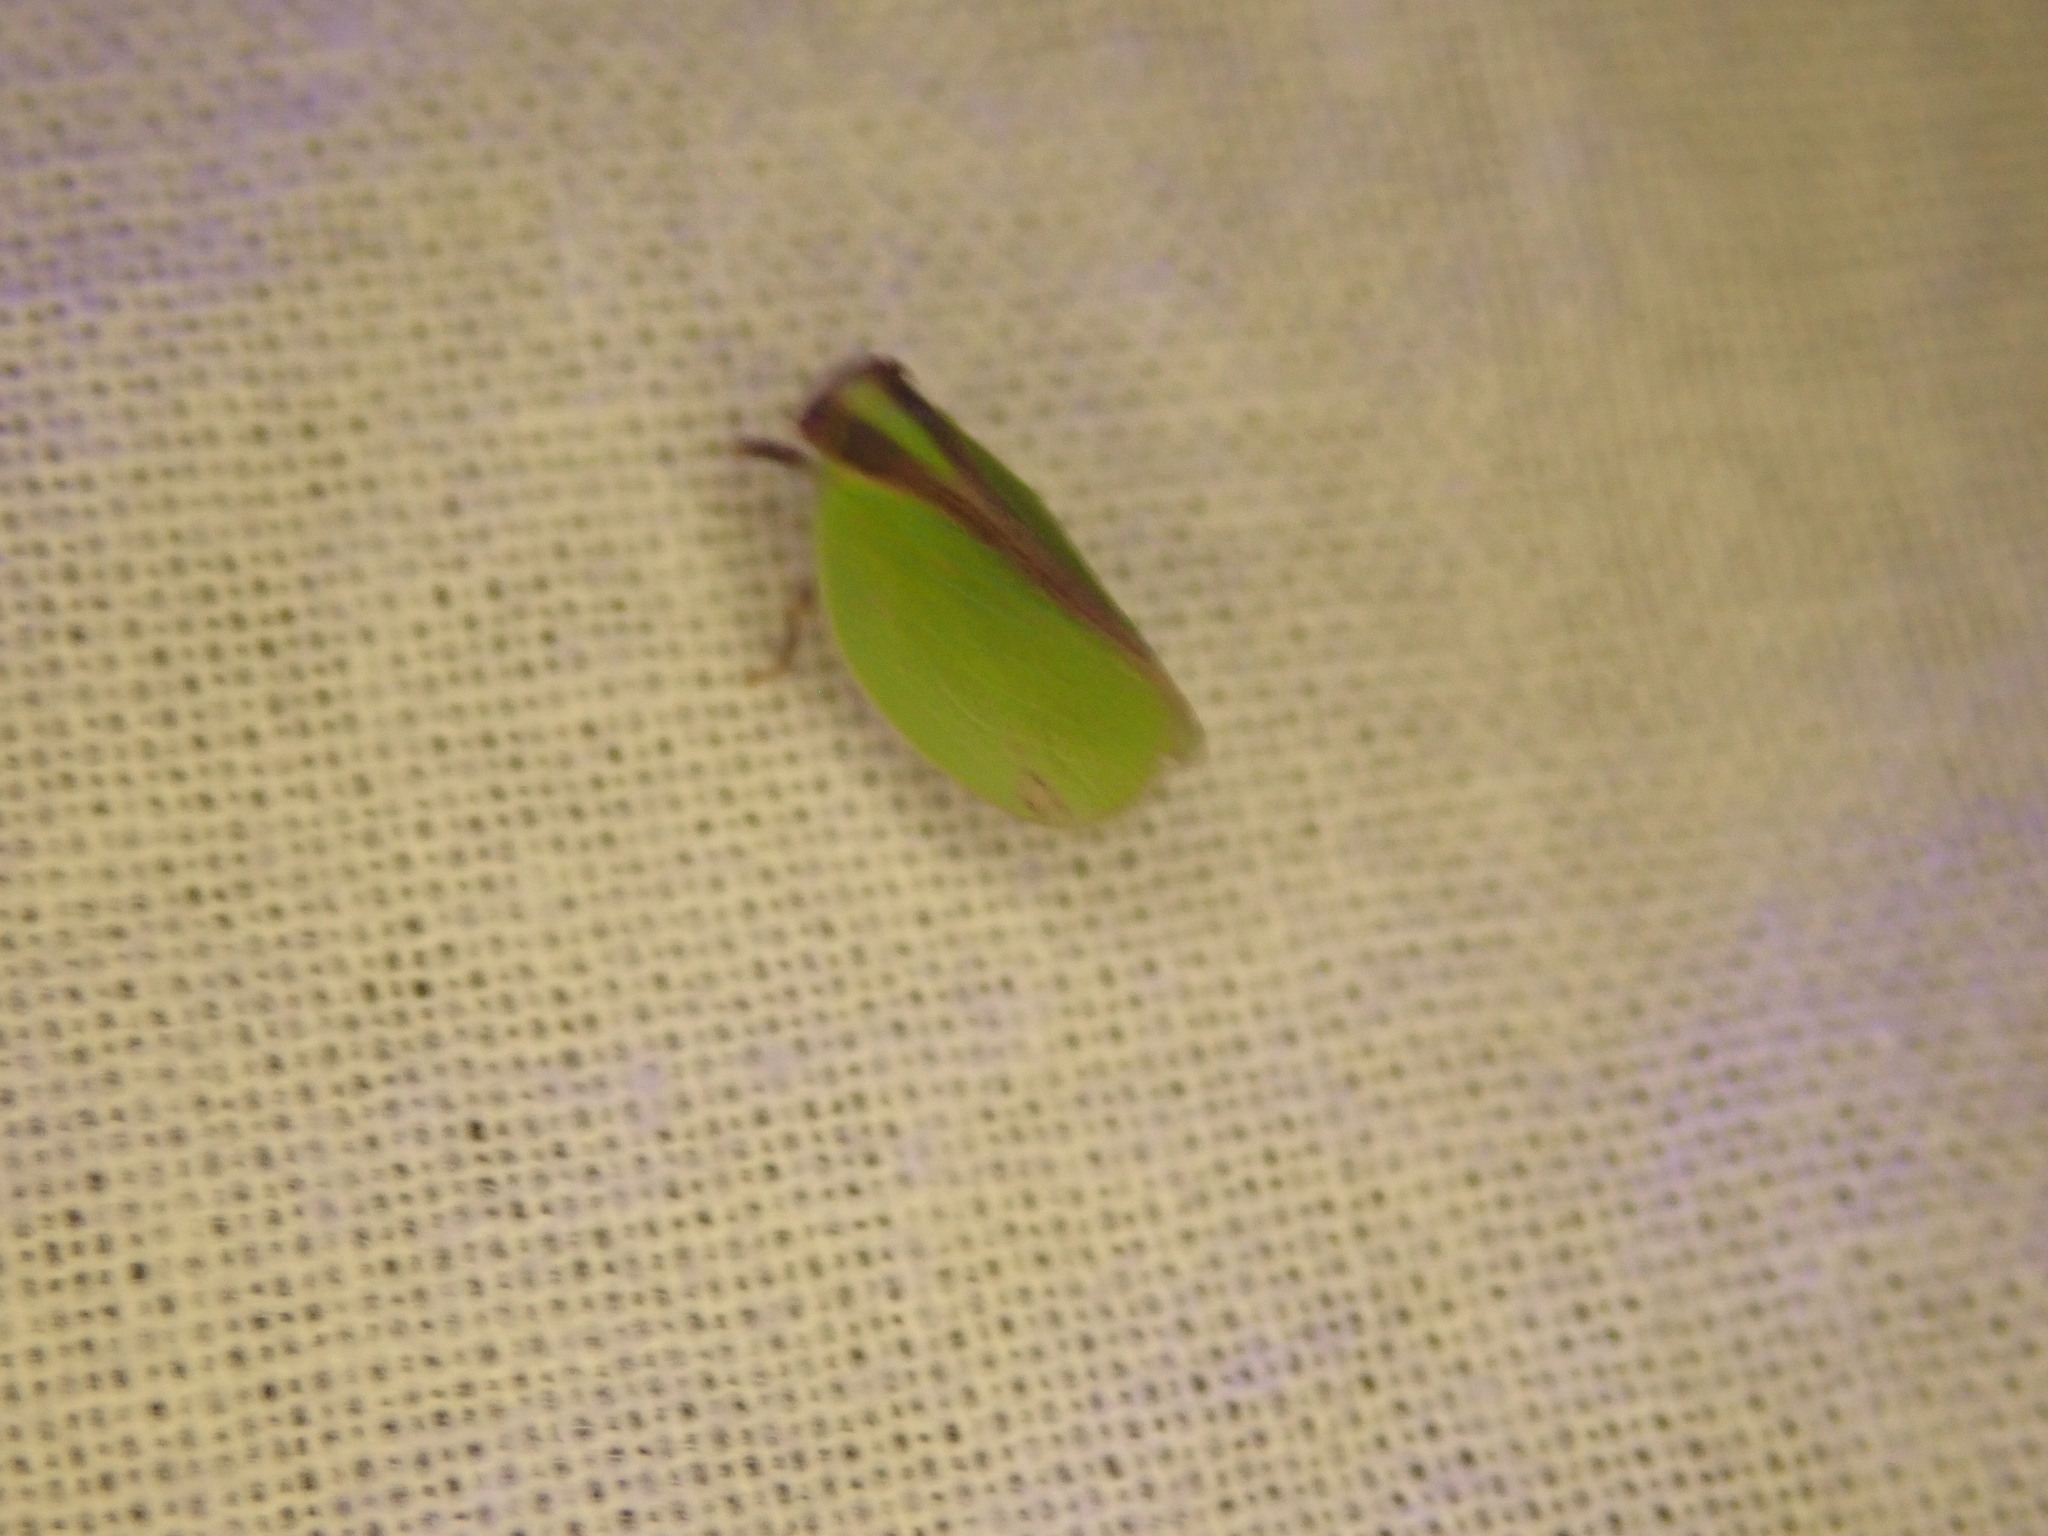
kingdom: Animalia
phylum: Arthropoda
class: Insecta
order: Hemiptera
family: Acanaloniidae
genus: Acanalonia
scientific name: Acanalonia bivittata
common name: Two-striped planthopper
